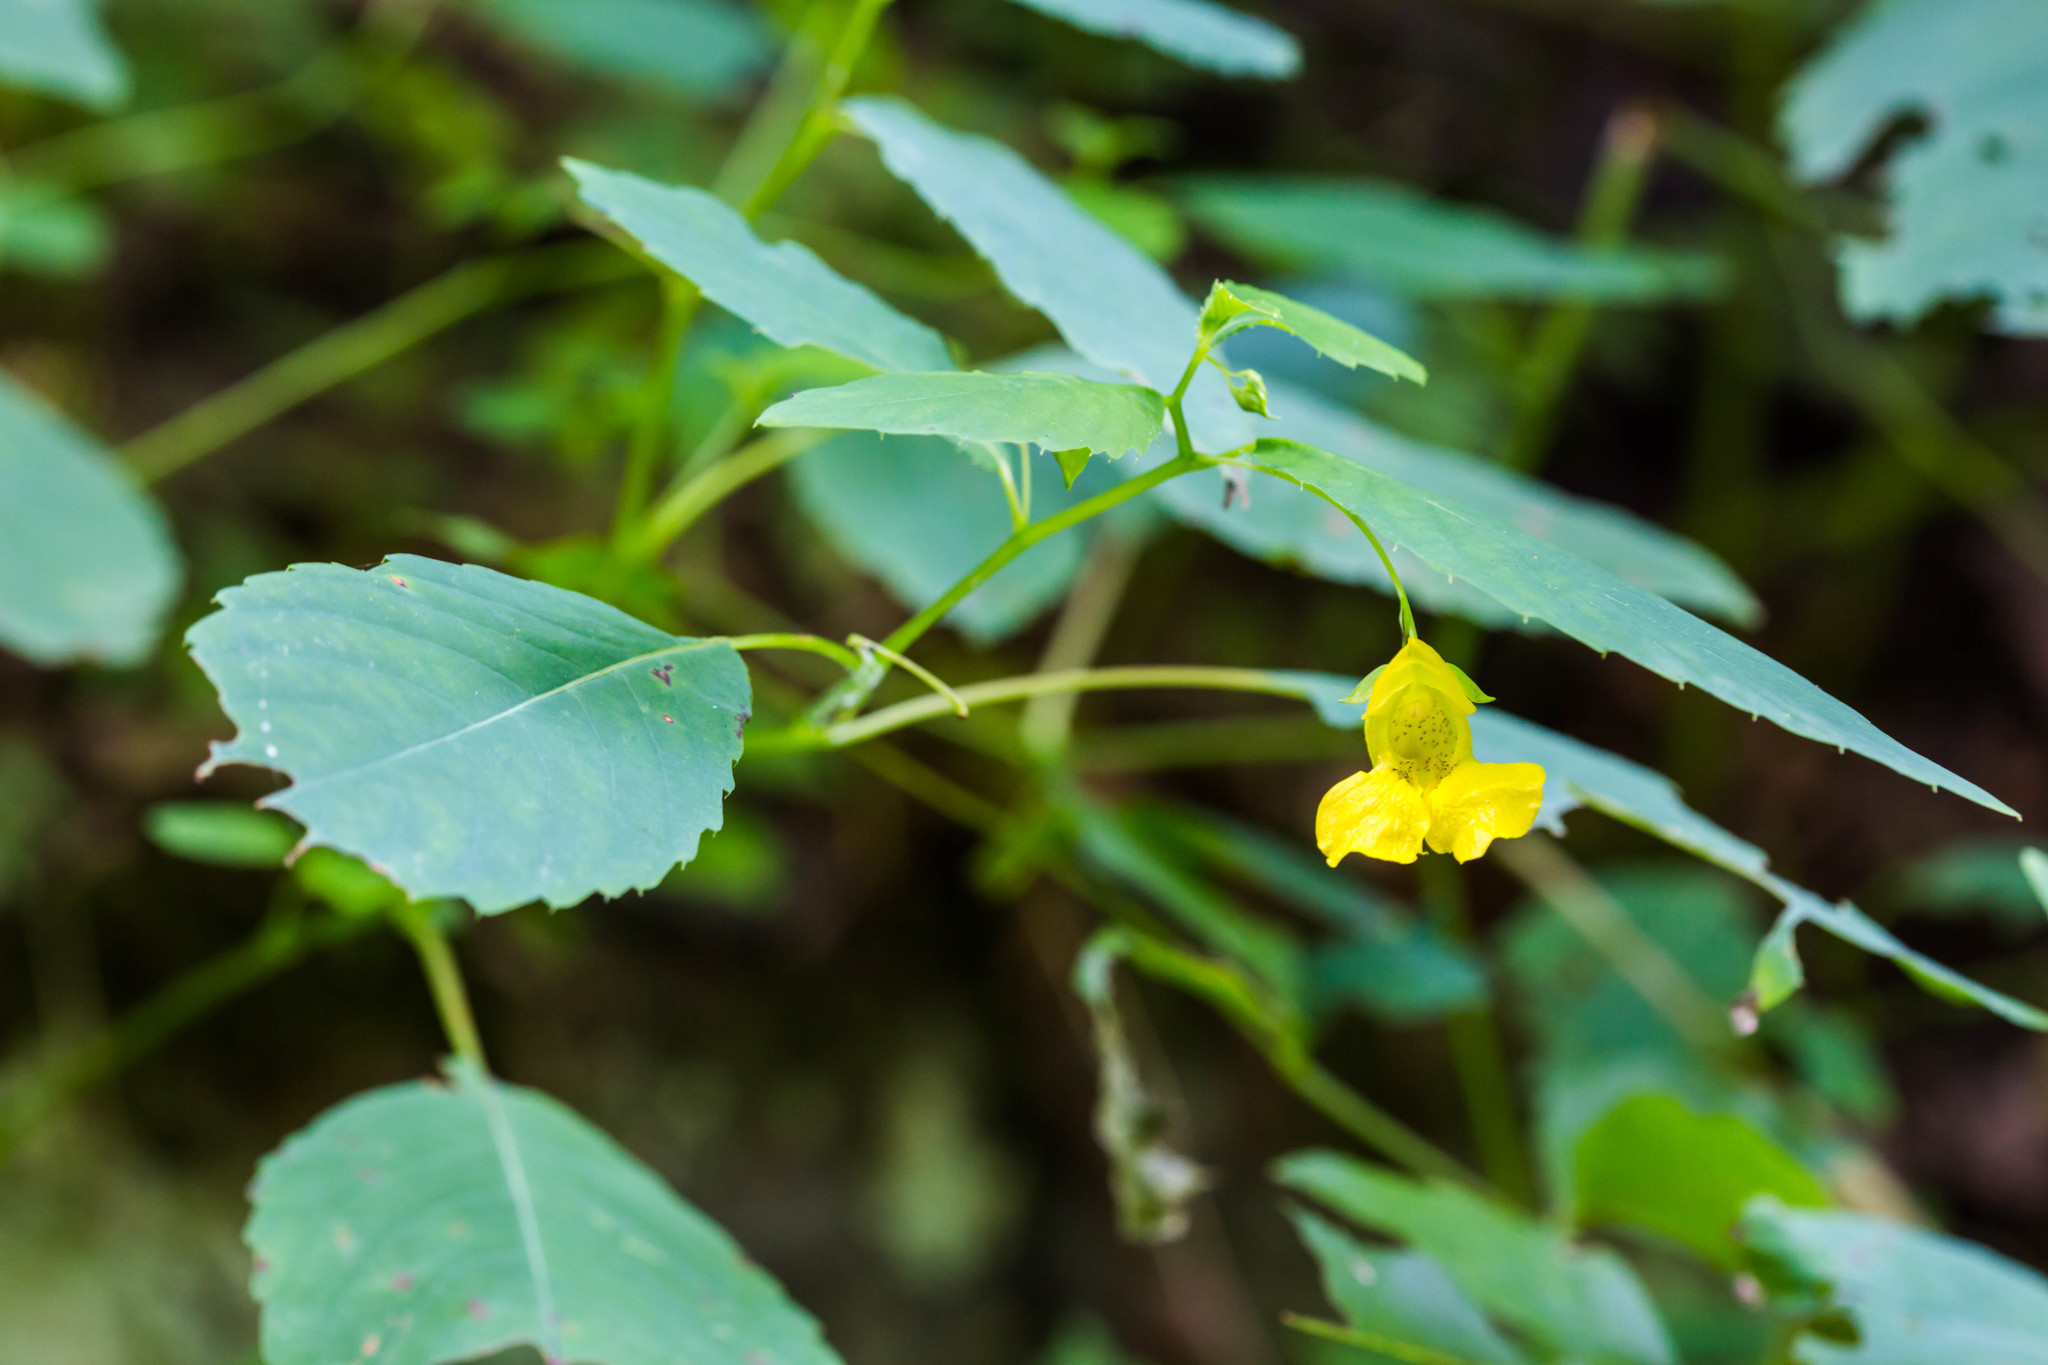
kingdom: Plantae
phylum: Tracheophyta
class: Magnoliopsida
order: Ericales
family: Balsaminaceae
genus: Impatiens
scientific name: Impatiens pallida
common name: Pale snapweed
